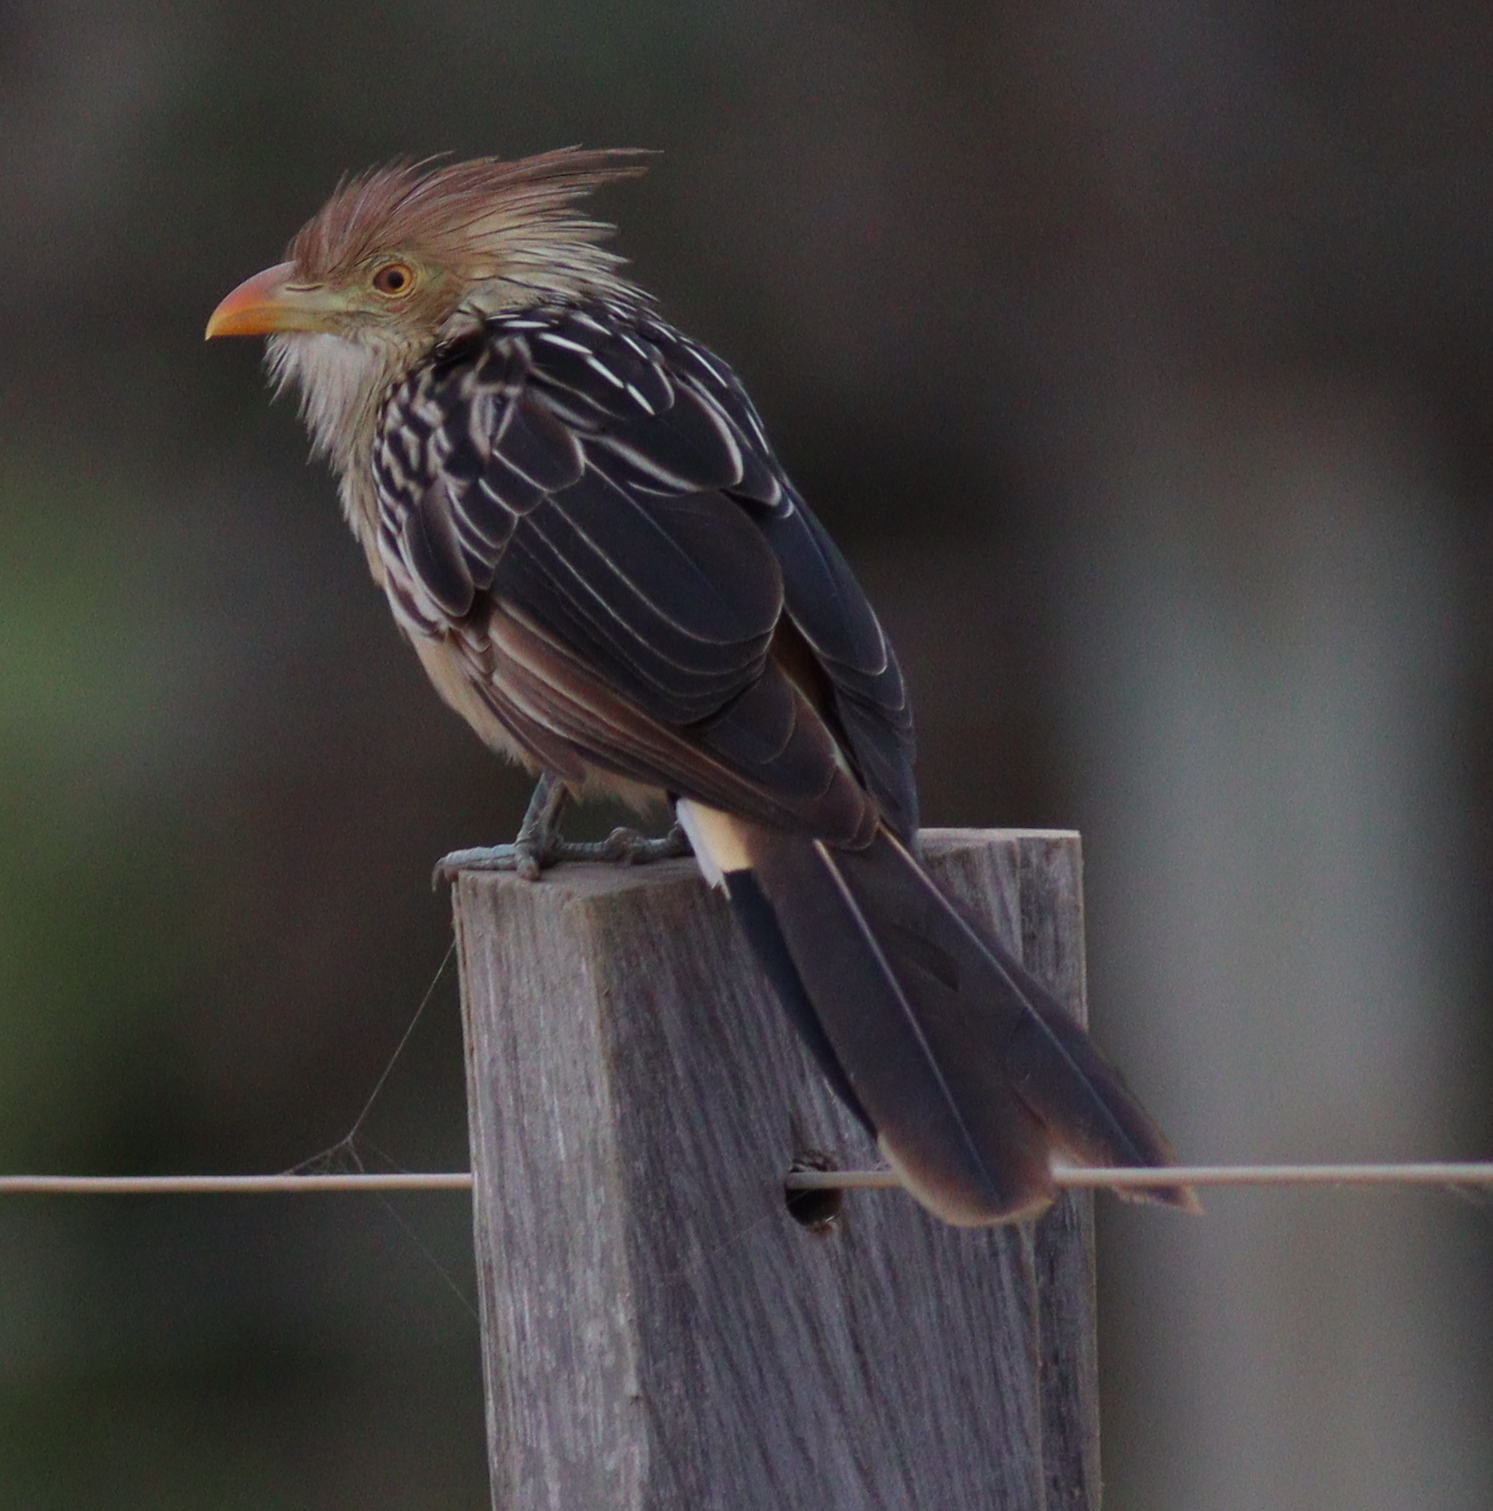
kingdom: Animalia
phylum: Chordata
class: Aves
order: Cuculiformes
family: Cuculidae
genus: Guira
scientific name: Guira guira
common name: Guira cuckoo
